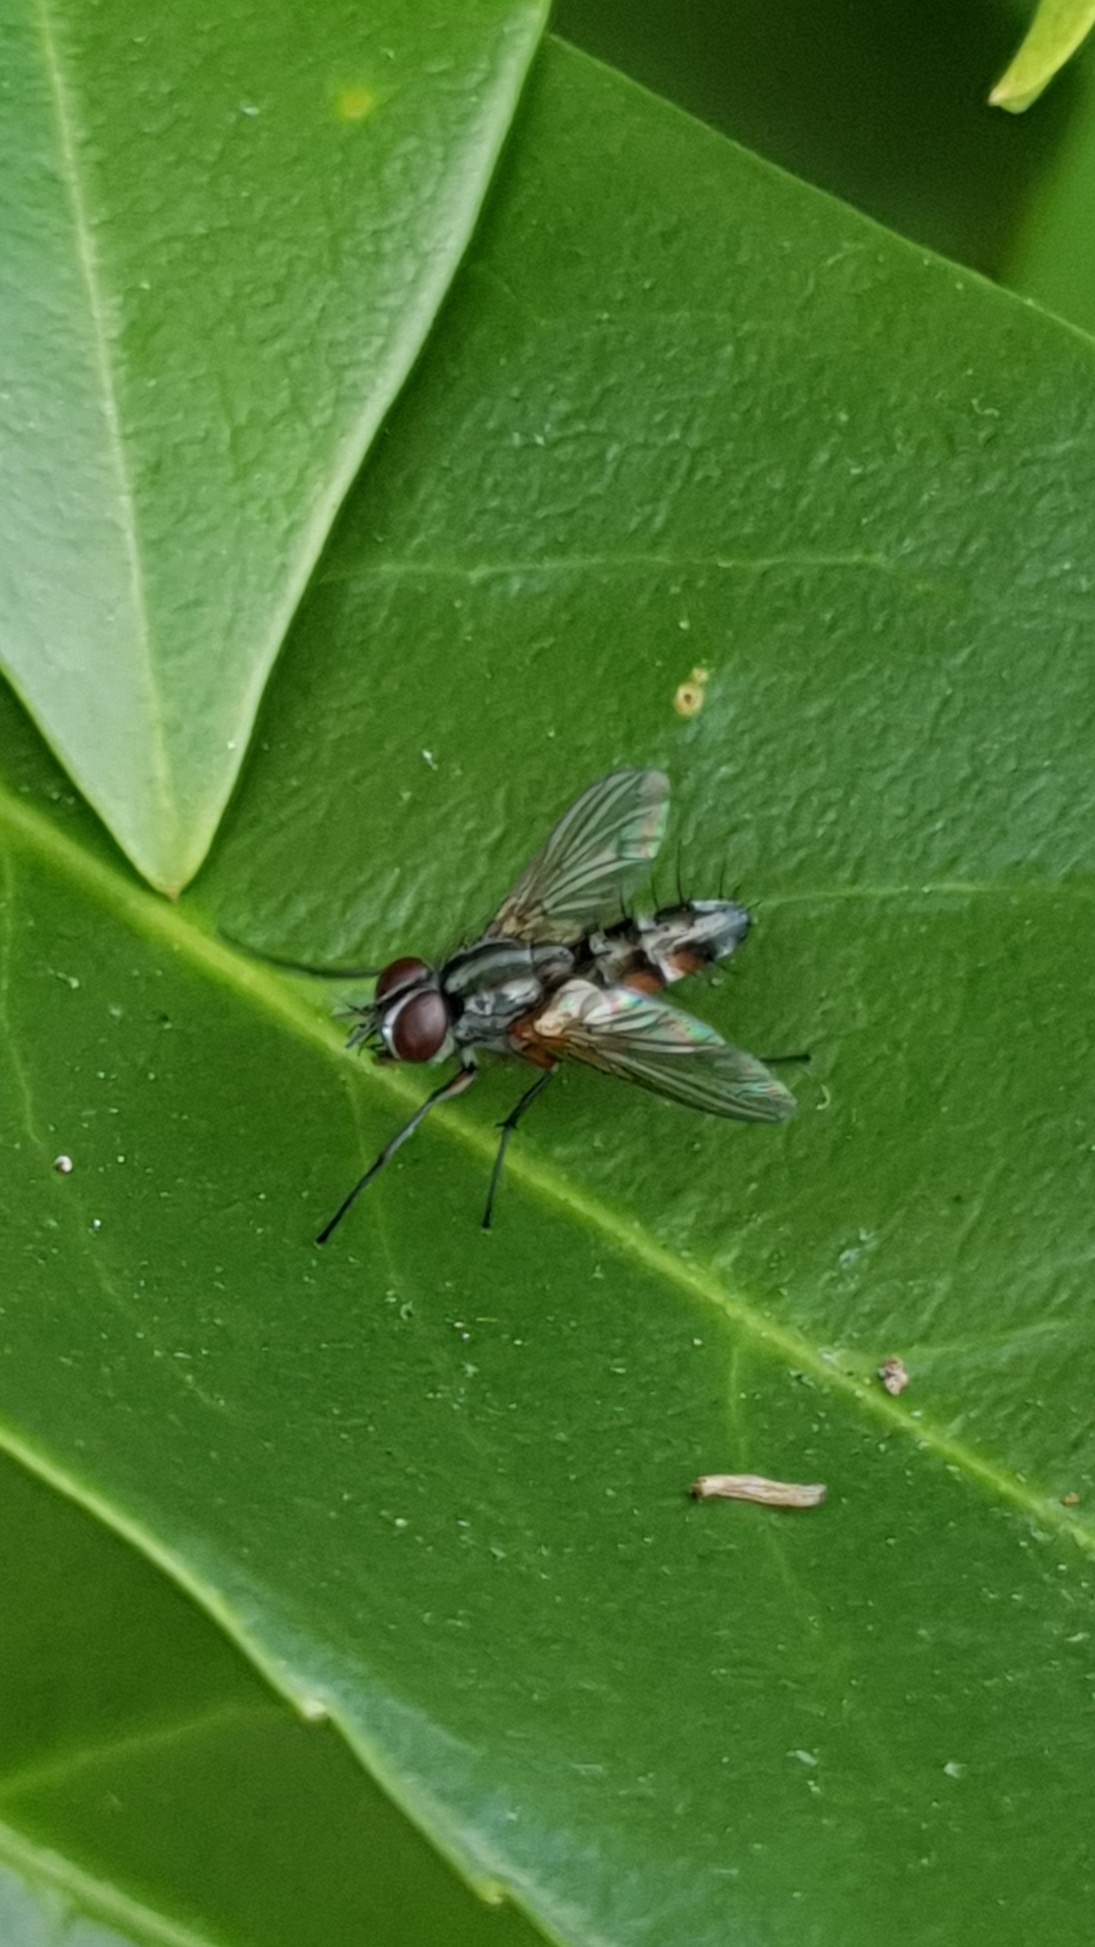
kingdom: Animalia
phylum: Arthropoda
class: Insecta
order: Diptera
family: Tachinidae
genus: Mintho
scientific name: Mintho rufiventris
